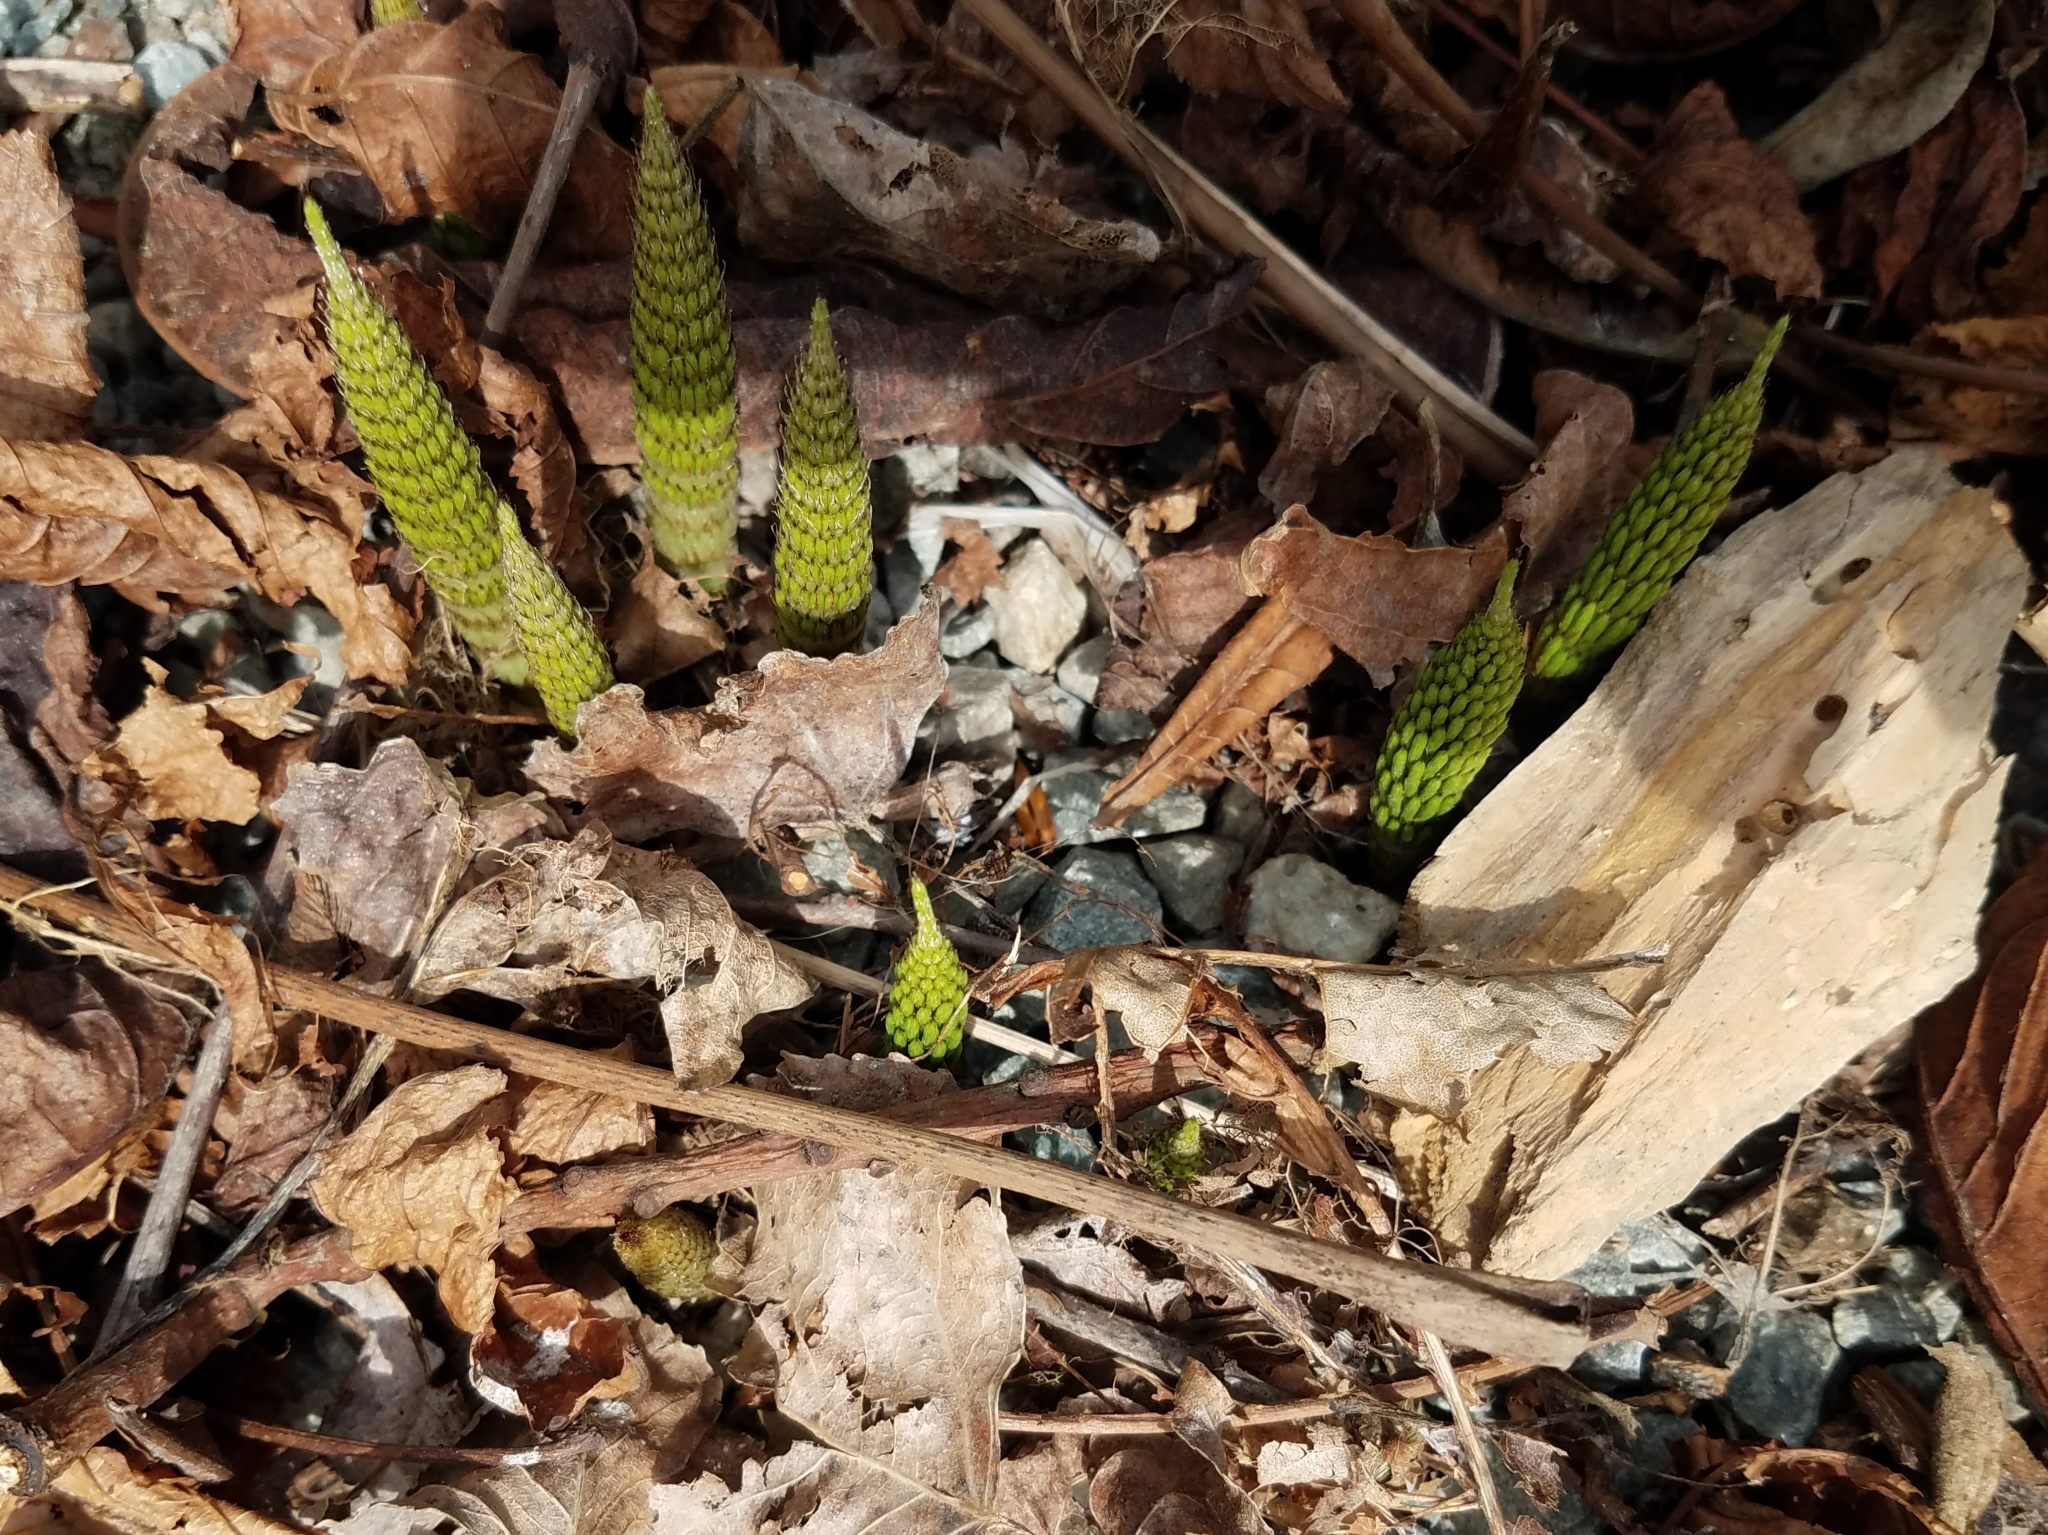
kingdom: Plantae
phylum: Tracheophyta
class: Polypodiopsida
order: Equisetales
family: Equisetaceae
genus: Equisetum
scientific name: Equisetum braunii
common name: Braun's horsetail
